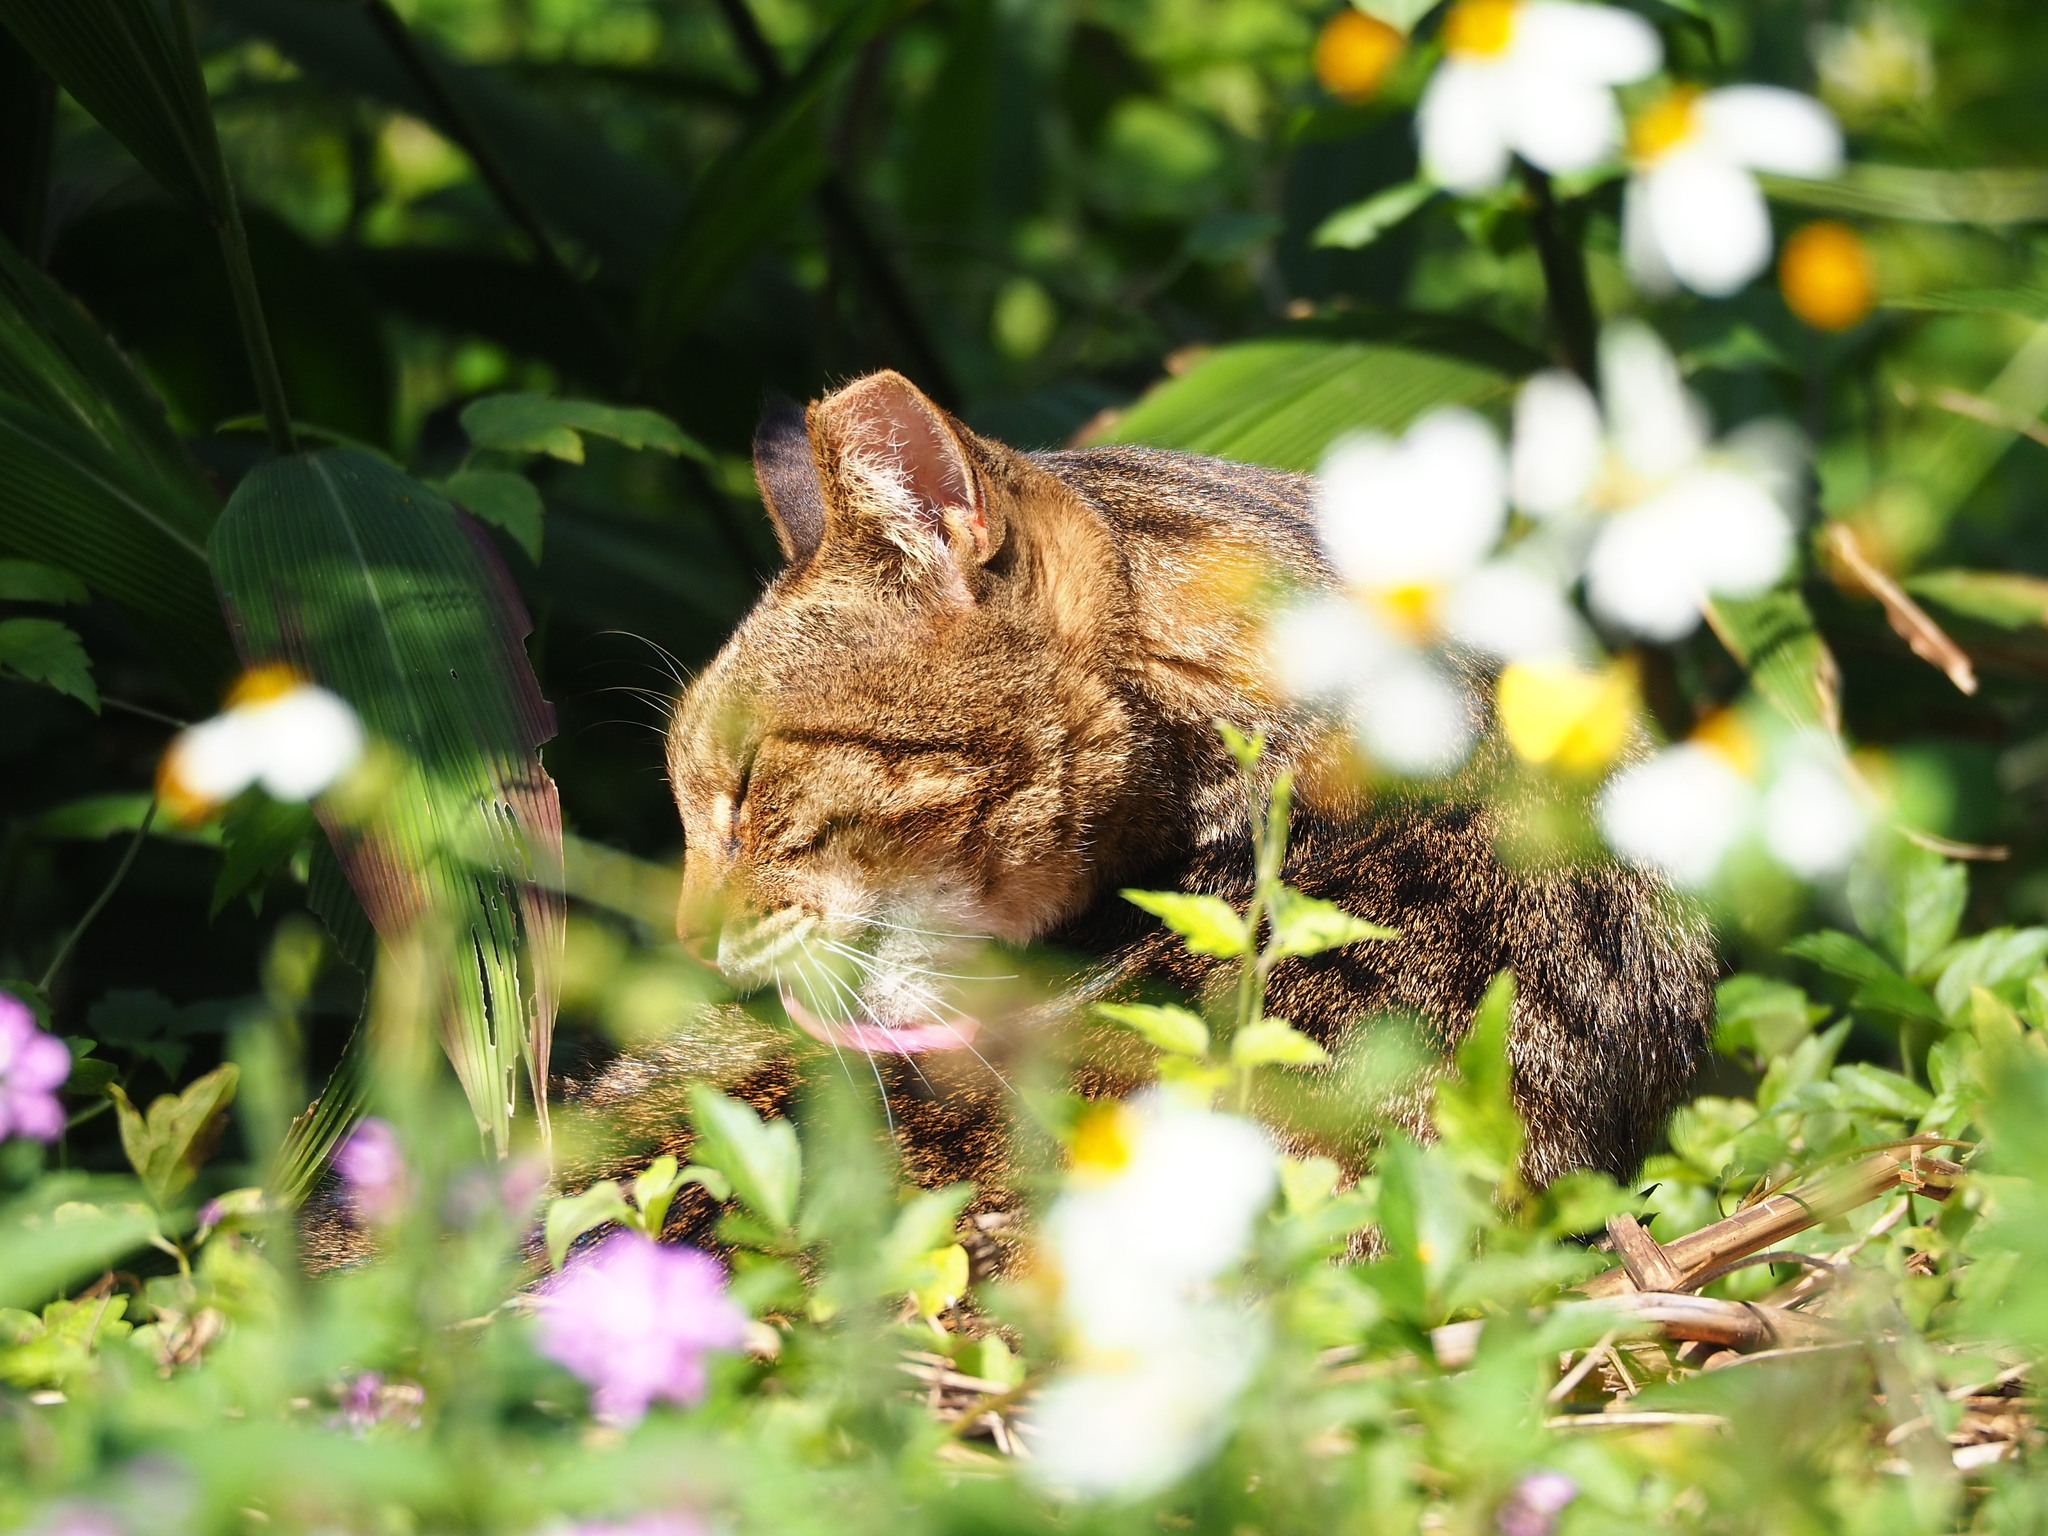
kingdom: Animalia
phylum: Chordata
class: Mammalia
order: Carnivora
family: Felidae
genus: Felis
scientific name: Felis catus
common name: Domestic cat
